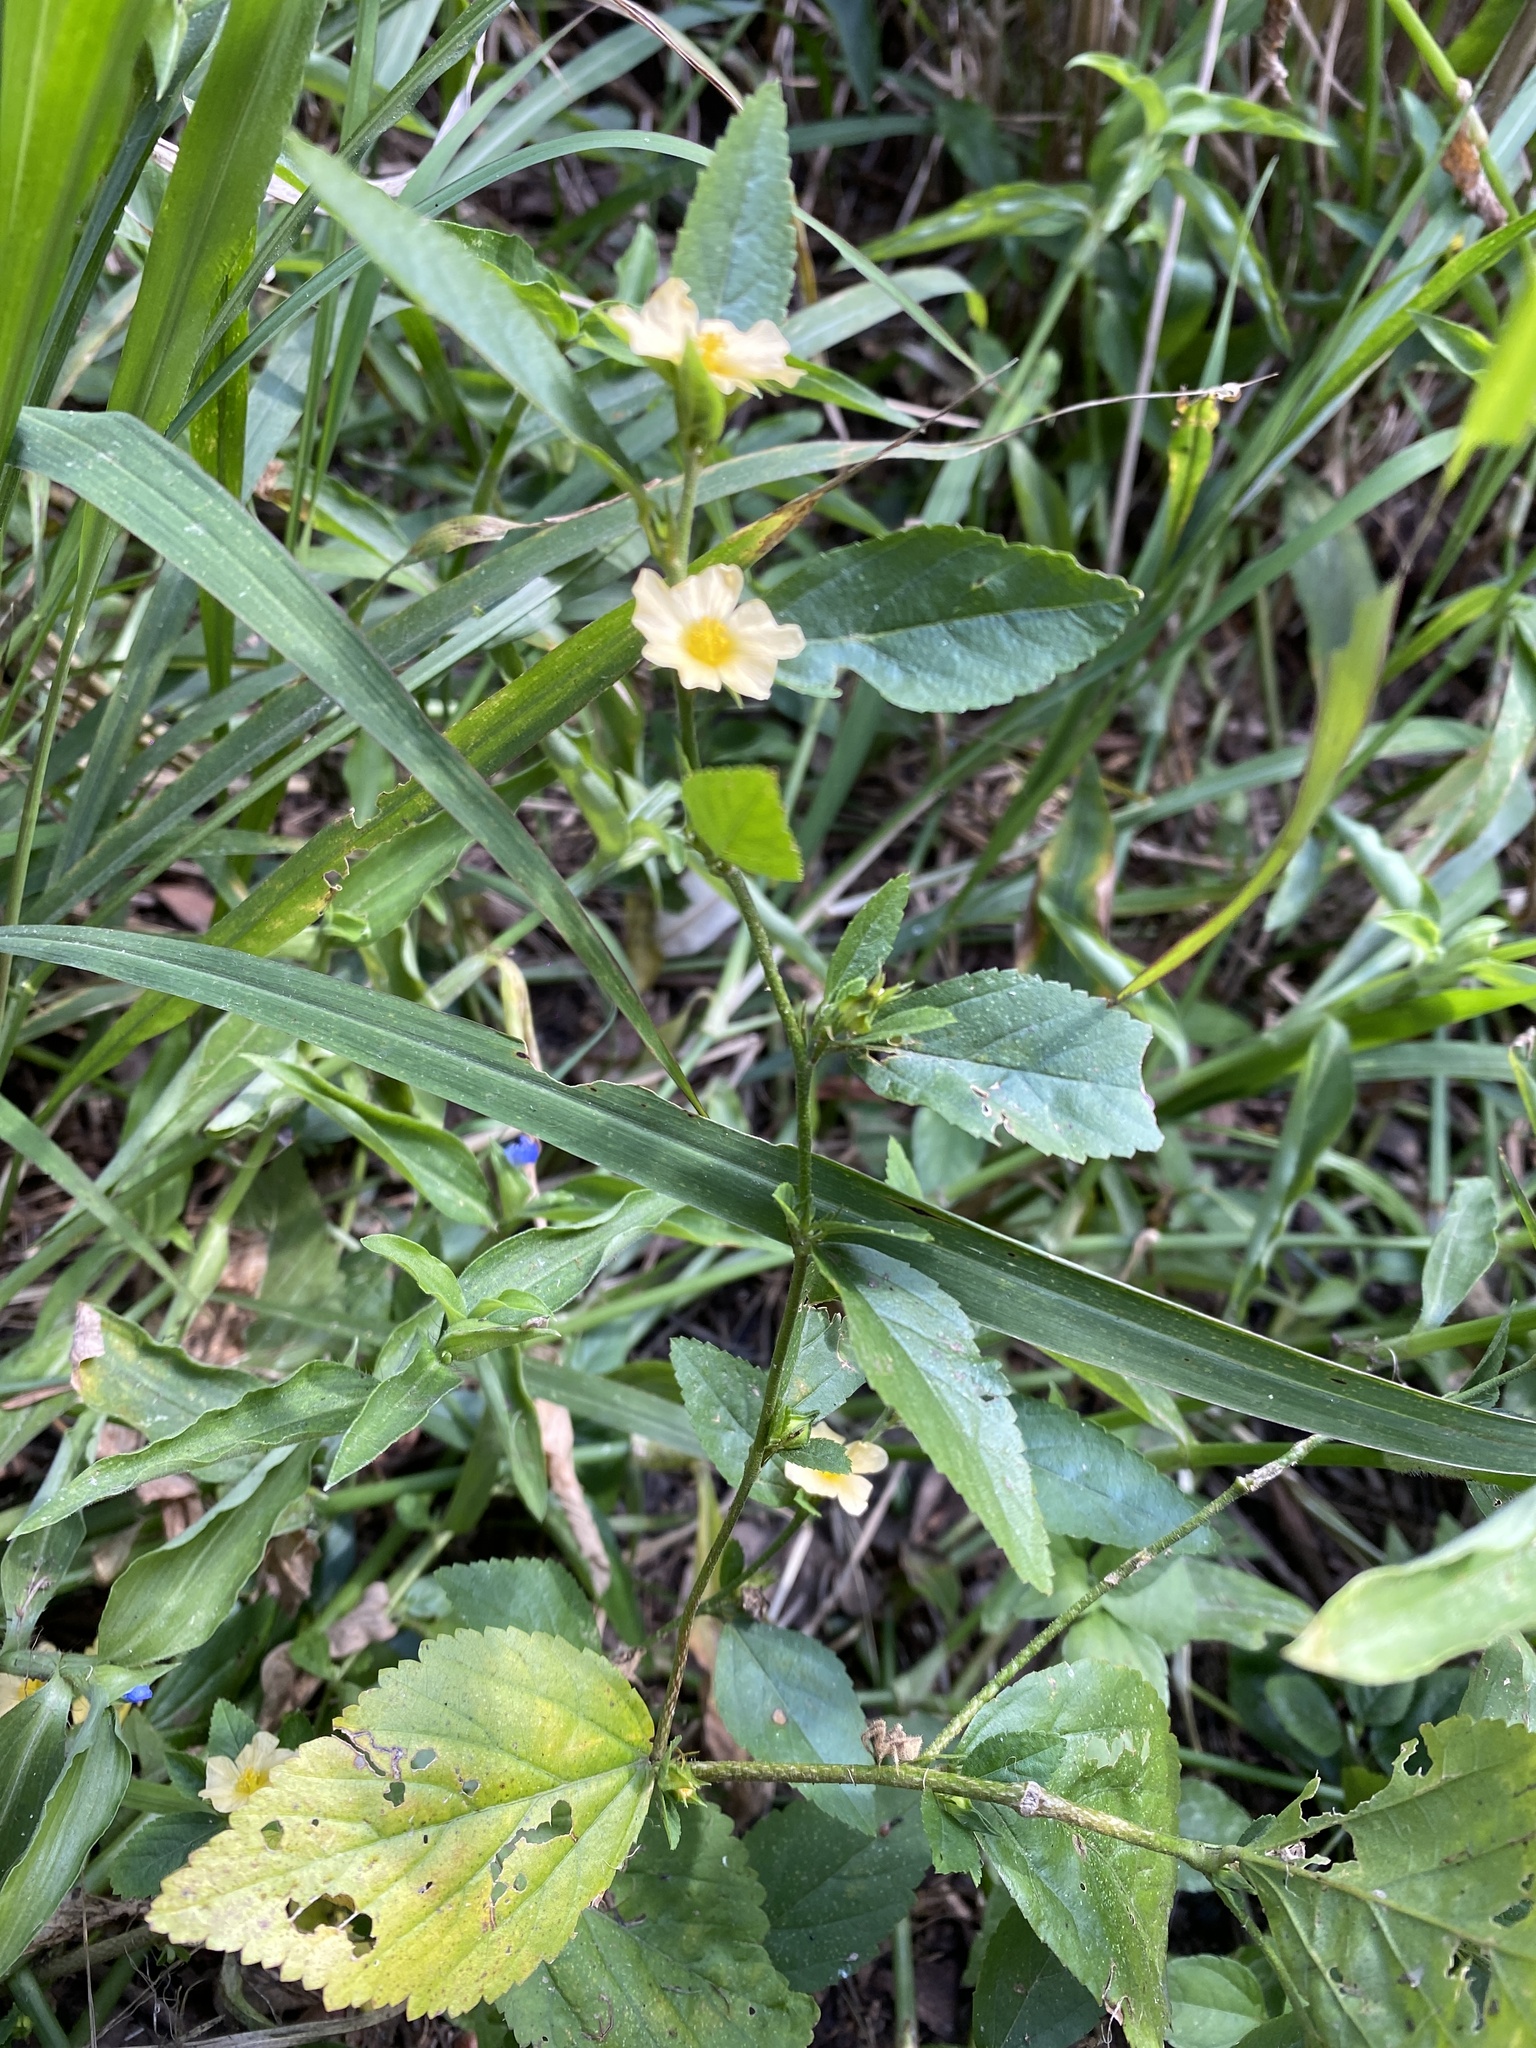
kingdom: Plantae
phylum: Tracheophyta
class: Magnoliopsida
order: Malvales
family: Malvaceae
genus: Sida
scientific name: Sida rhombifolia
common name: Queensland-hemp
